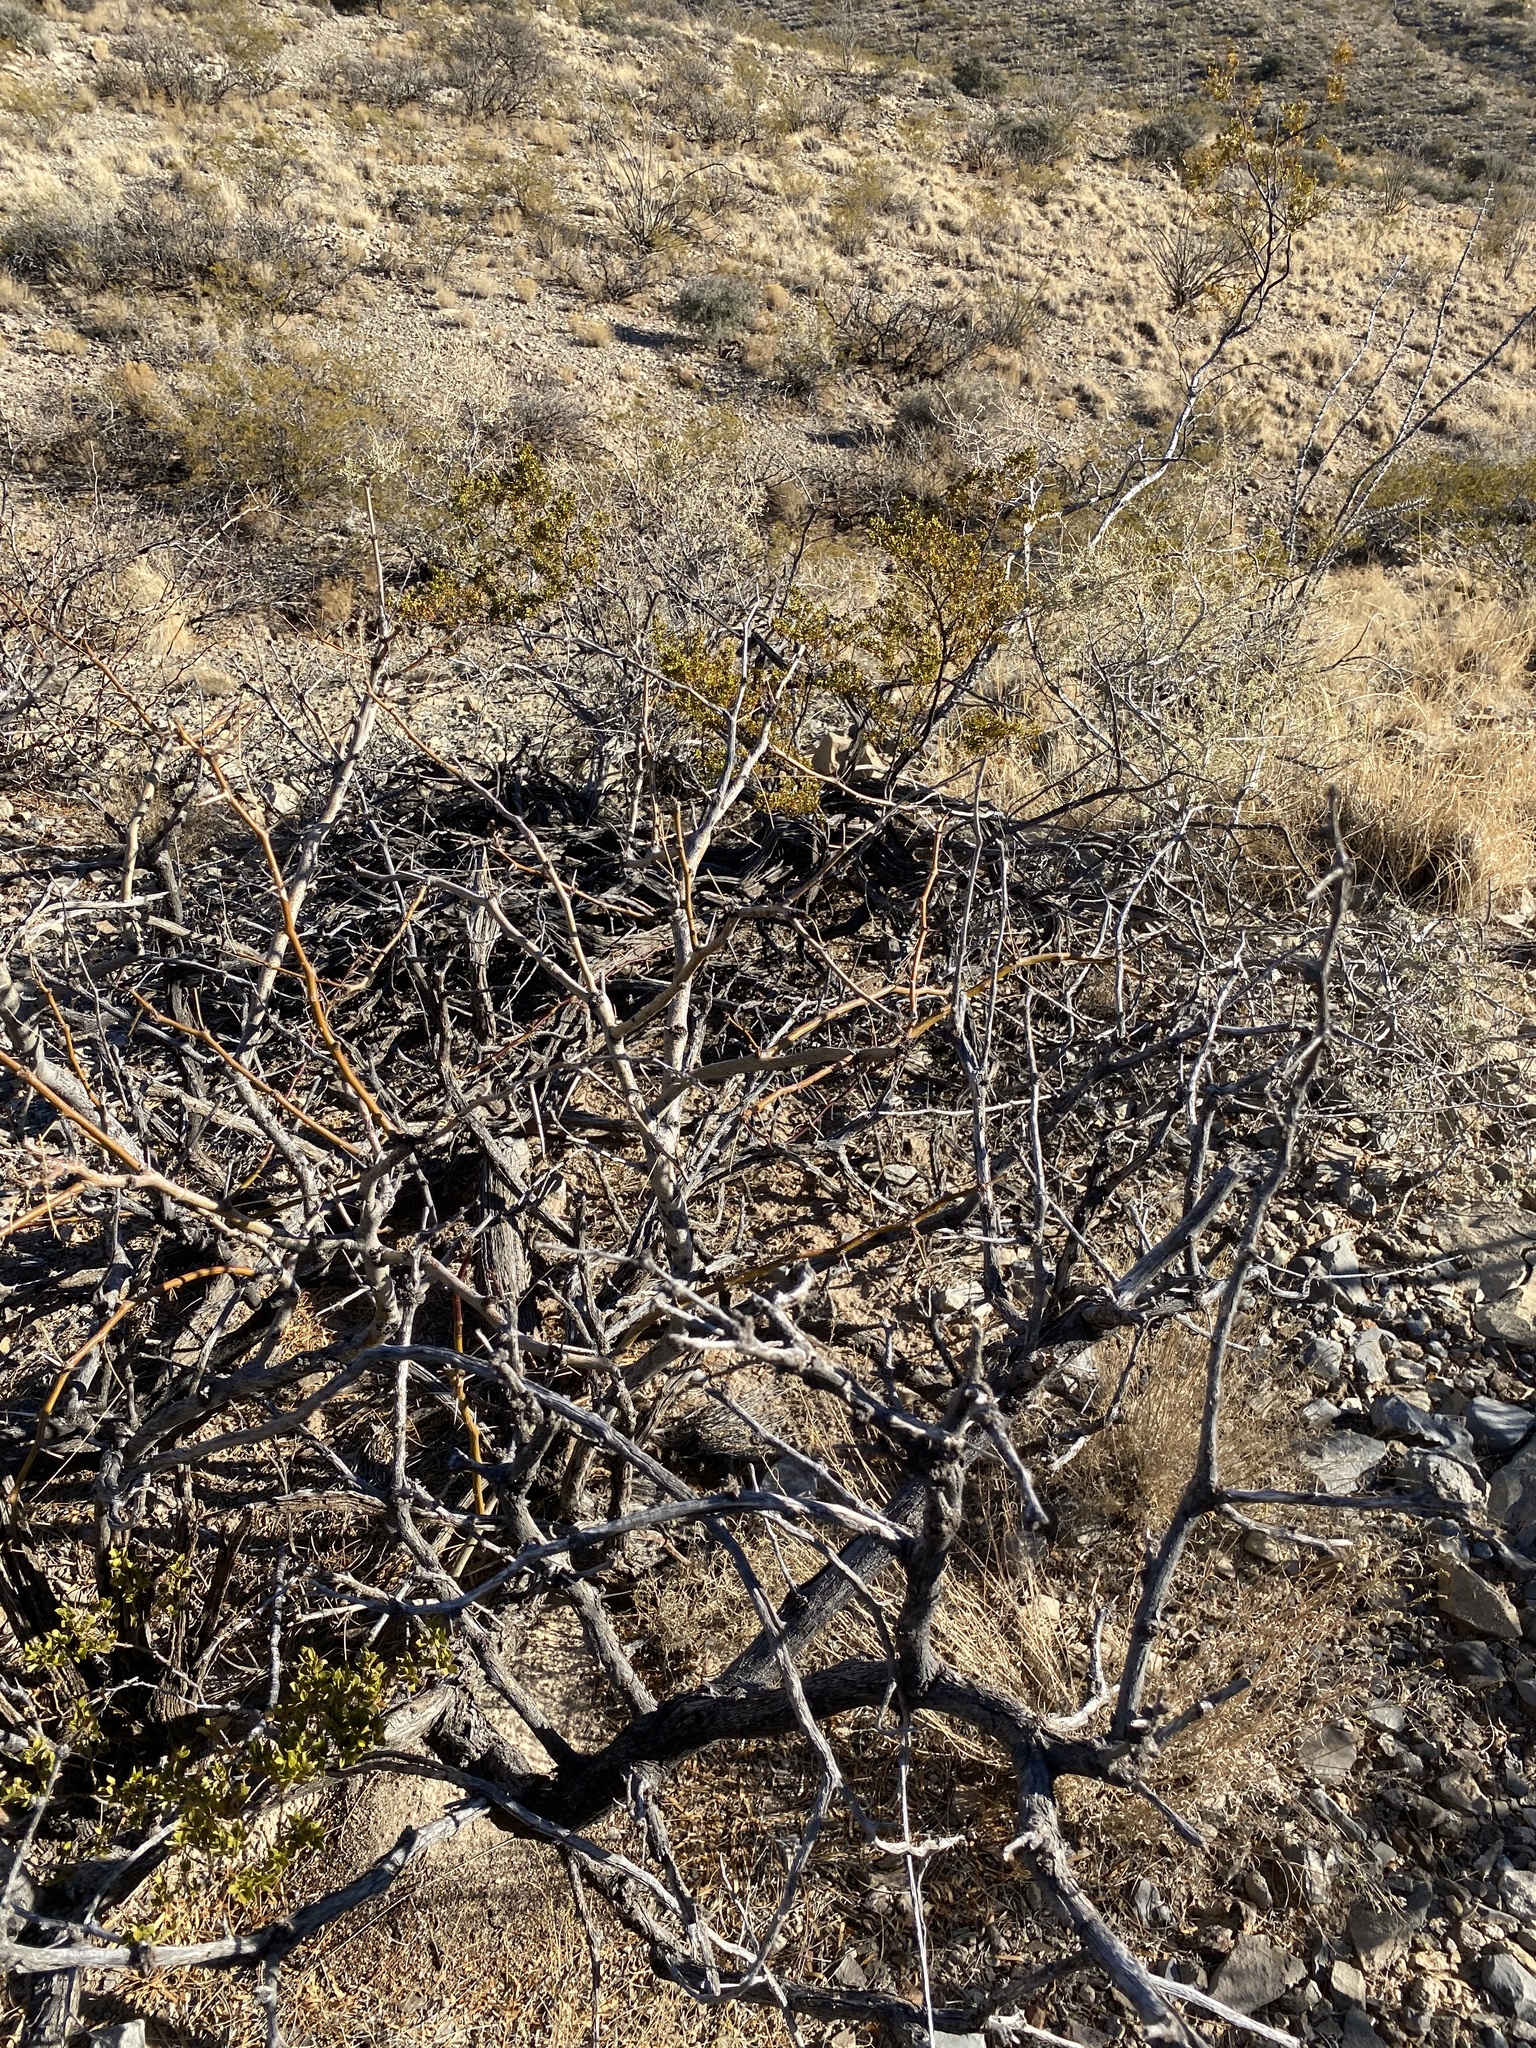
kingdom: Plantae
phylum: Tracheophyta
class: Magnoliopsida
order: Fabales
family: Fabaceae
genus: Prosopis
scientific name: Prosopis glandulosa
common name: Honey mesquite
